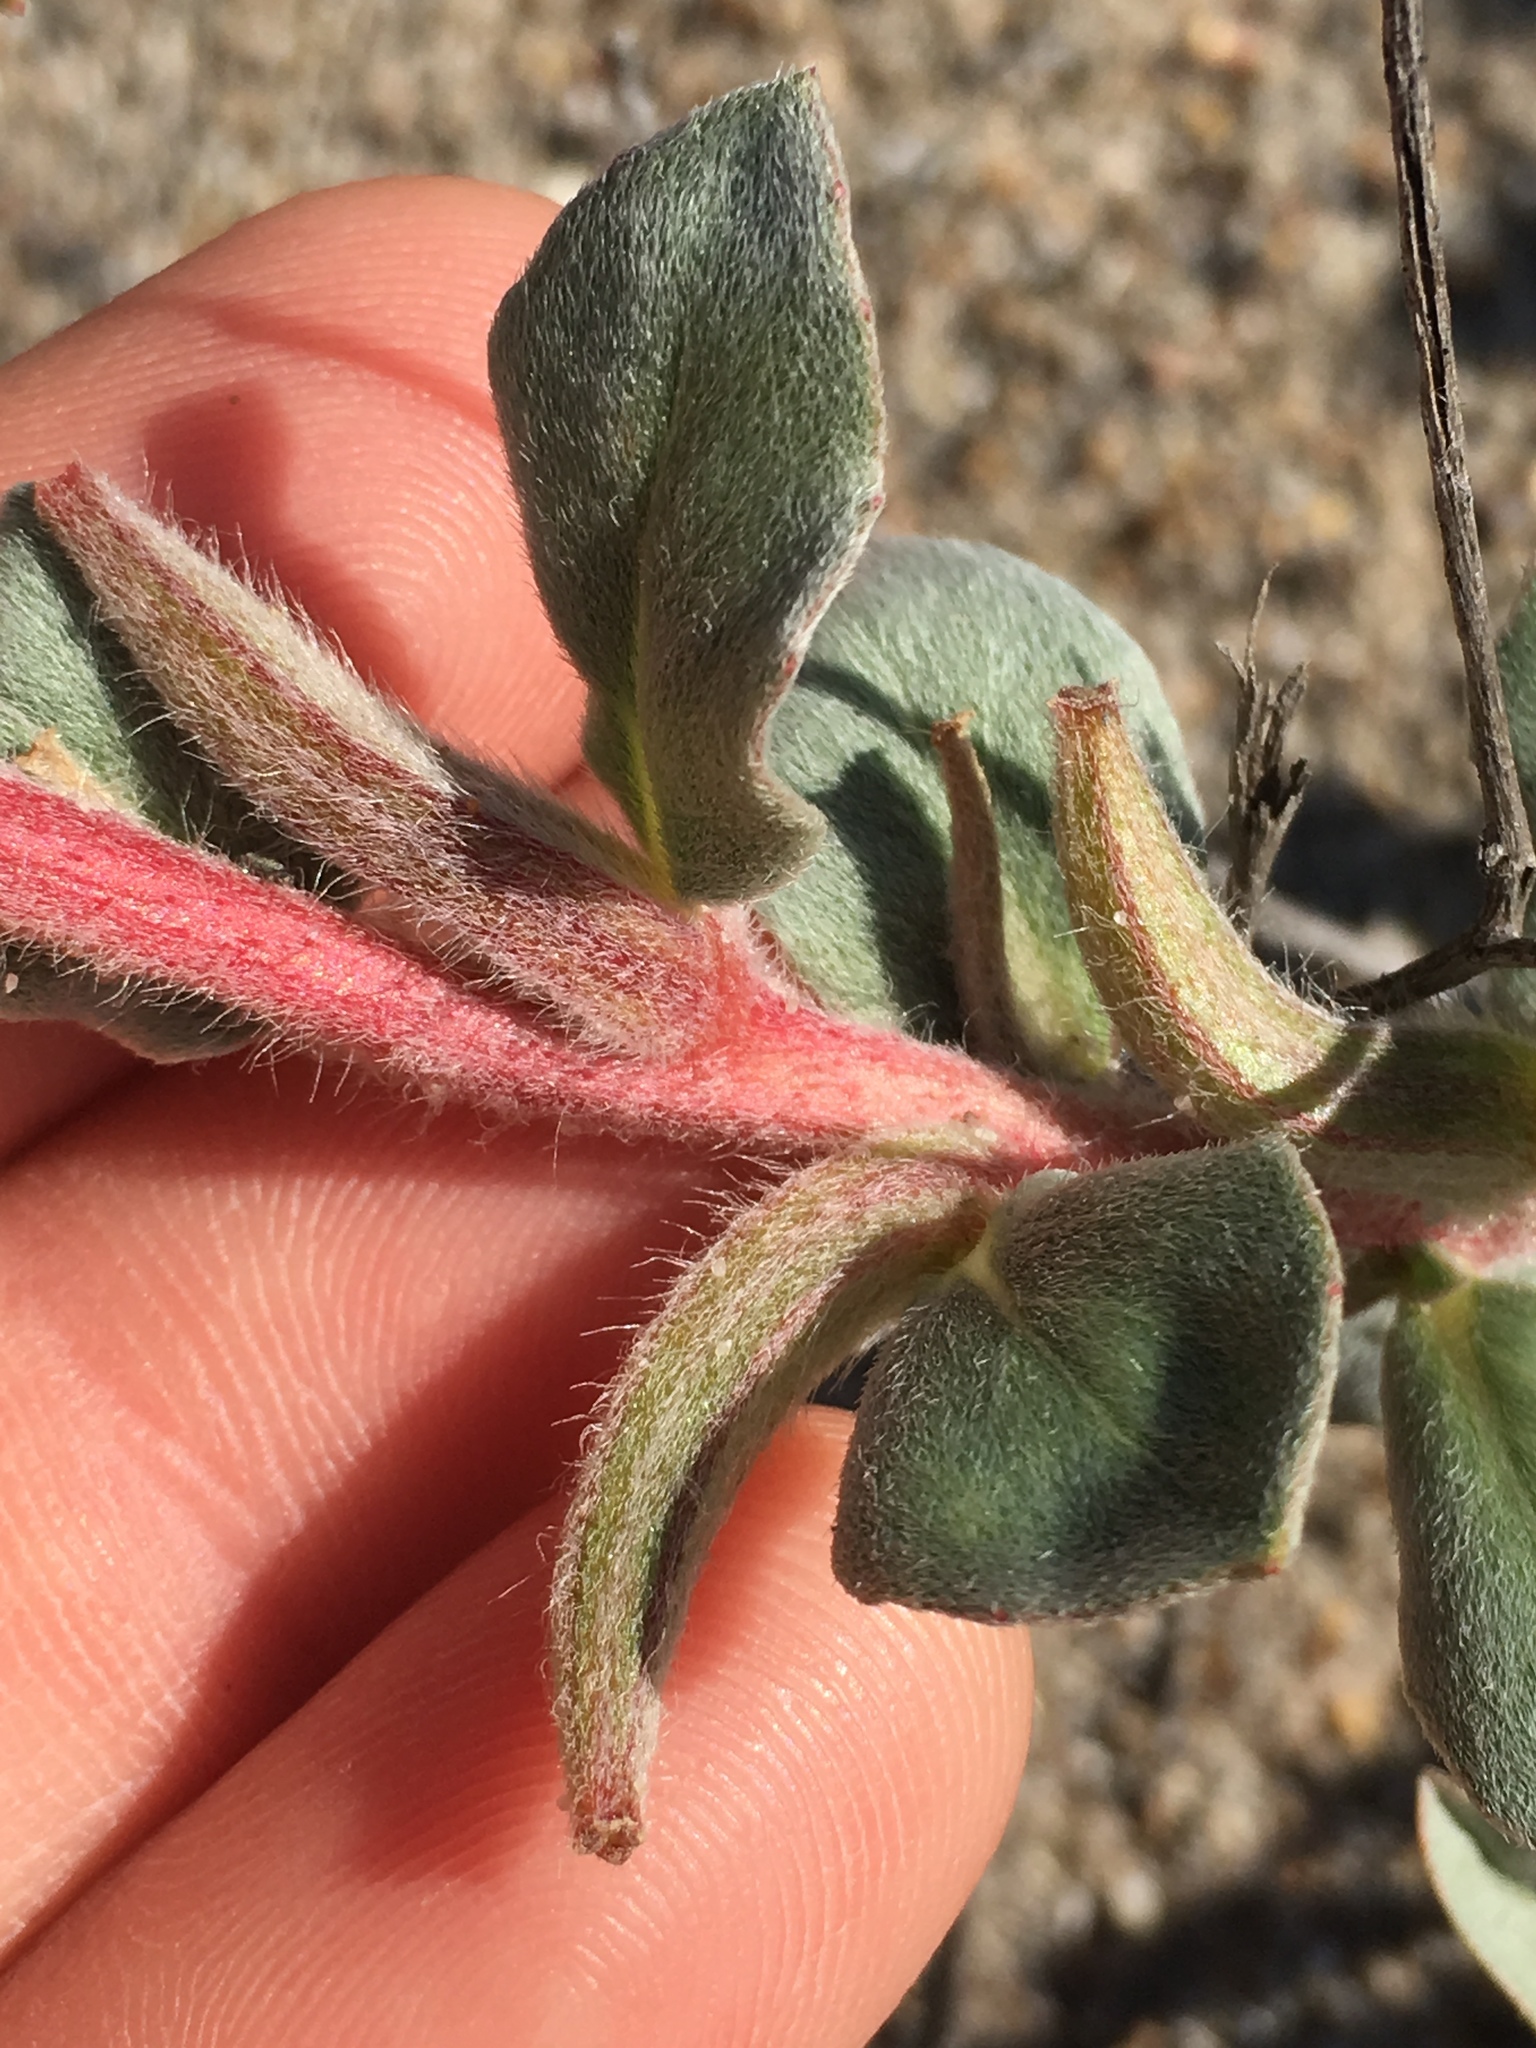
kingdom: Plantae
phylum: Tracheophyta
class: Magnoliopsida
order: Myrtales
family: Onagraceae
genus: Camissoniopsis
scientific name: Camissoniopsis cheiranthifolia
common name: Beach suncup
